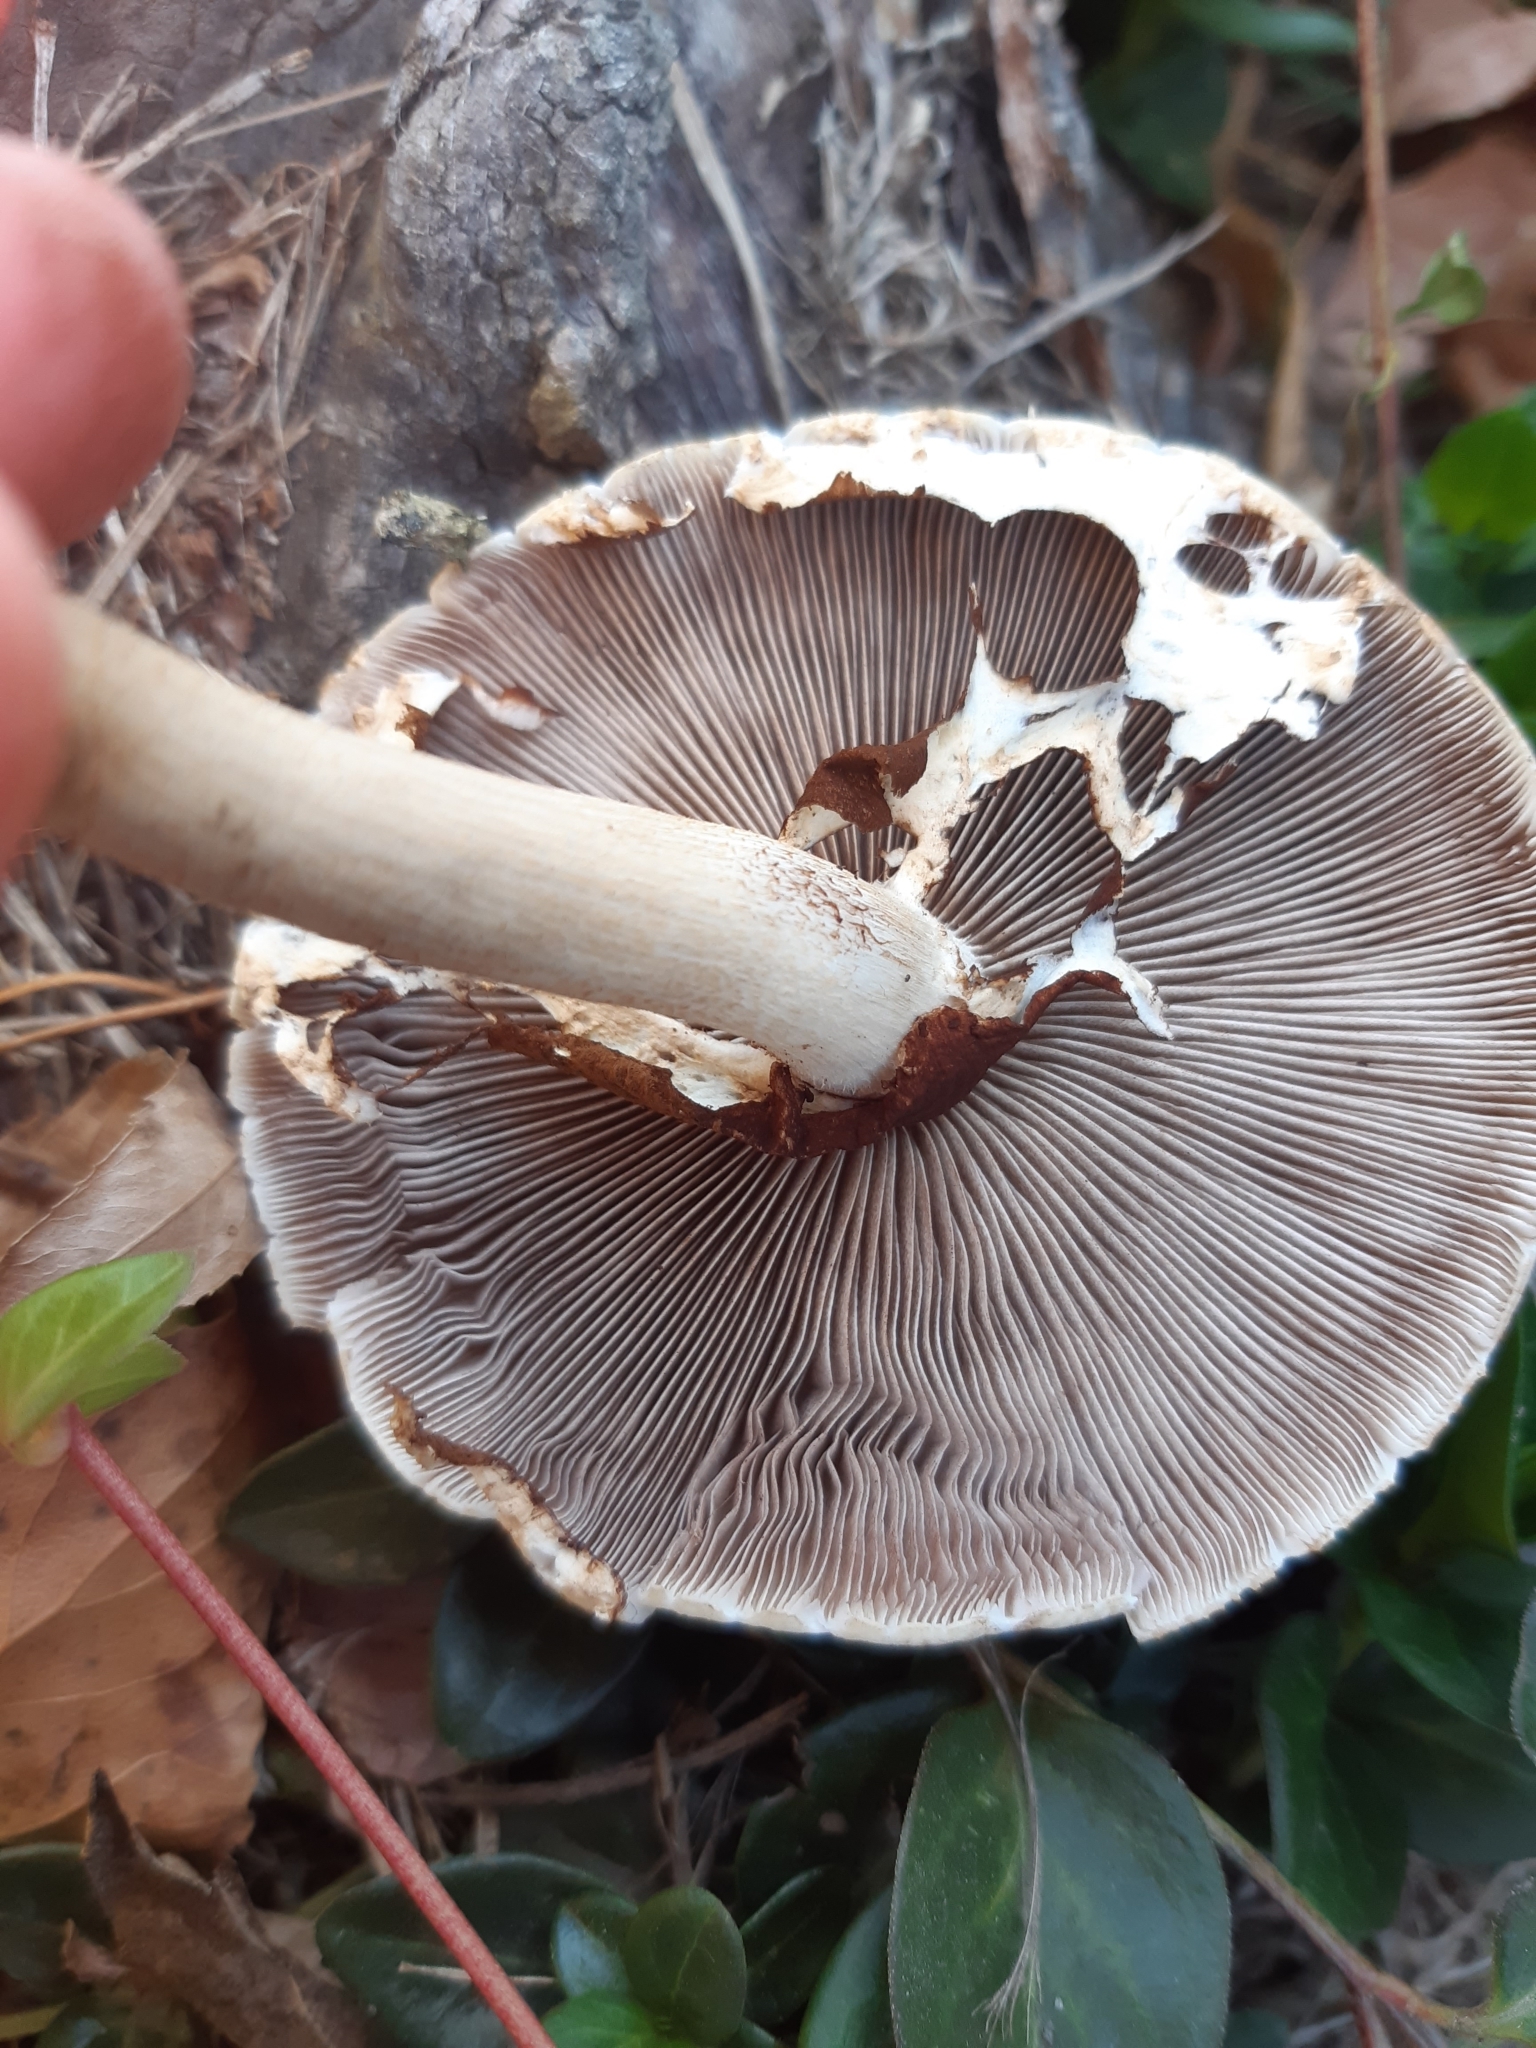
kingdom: Fungi
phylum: Basidiomycota
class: Agaricomycetes
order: Agaricales
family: Tubariaceae
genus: Cyclocybe
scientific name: Cyclocybe parasitica
